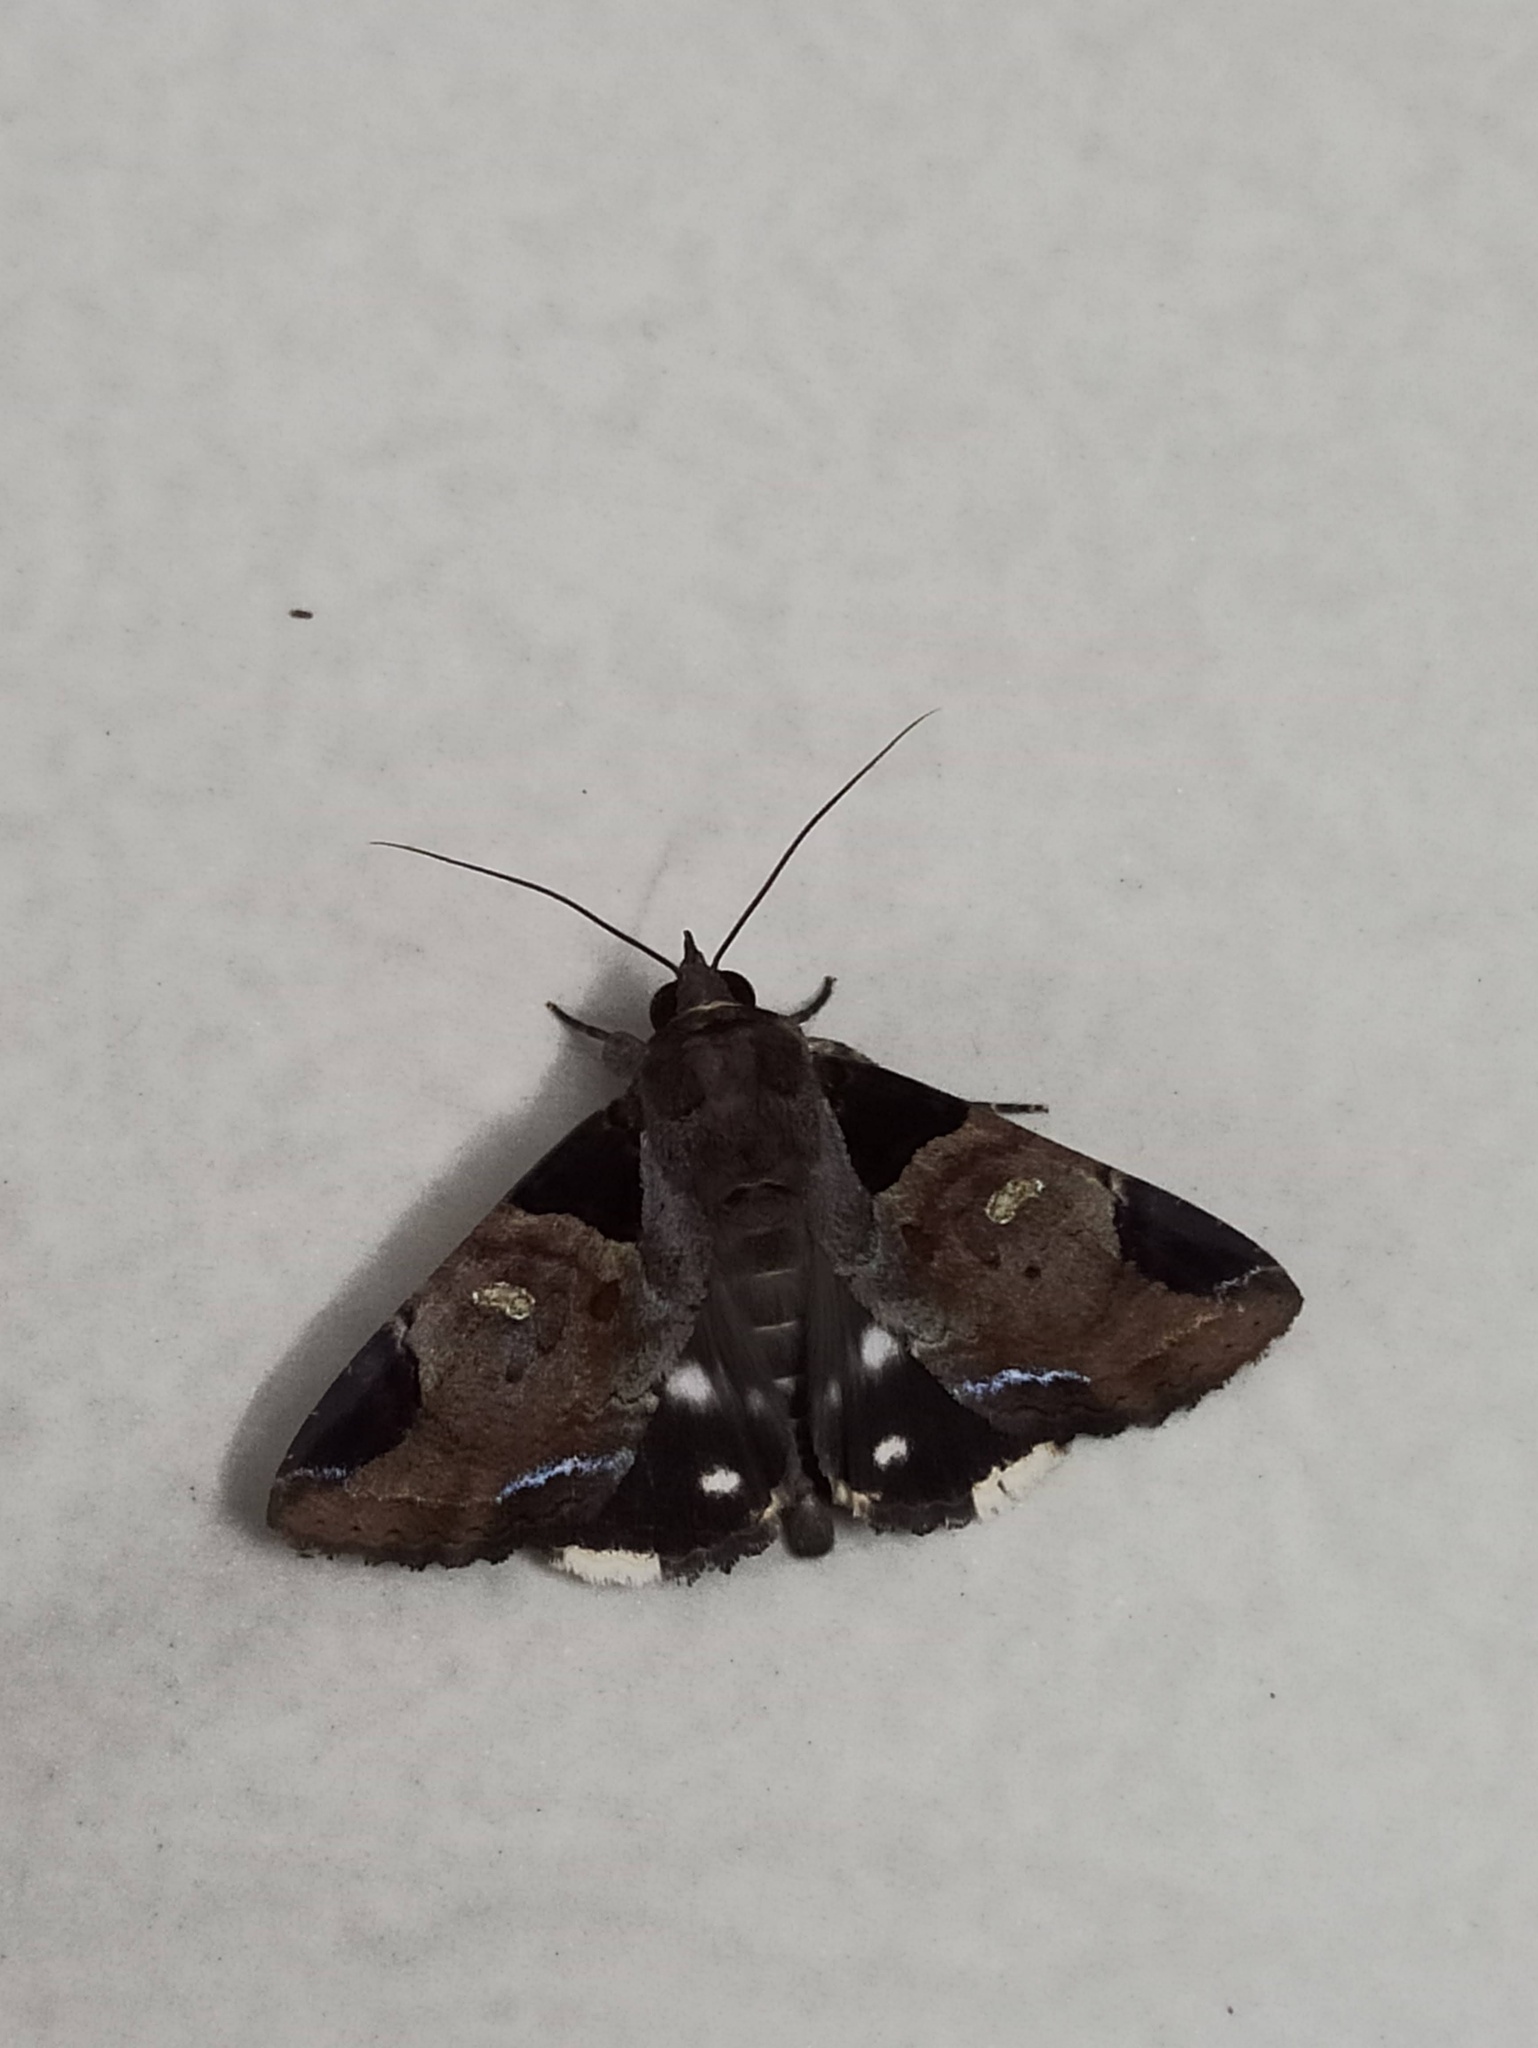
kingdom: Animalia
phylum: Arthropoda
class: Insecta
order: Lepidoptera
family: Erebidae
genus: Ercheia
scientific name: Ercheia cyllaria
